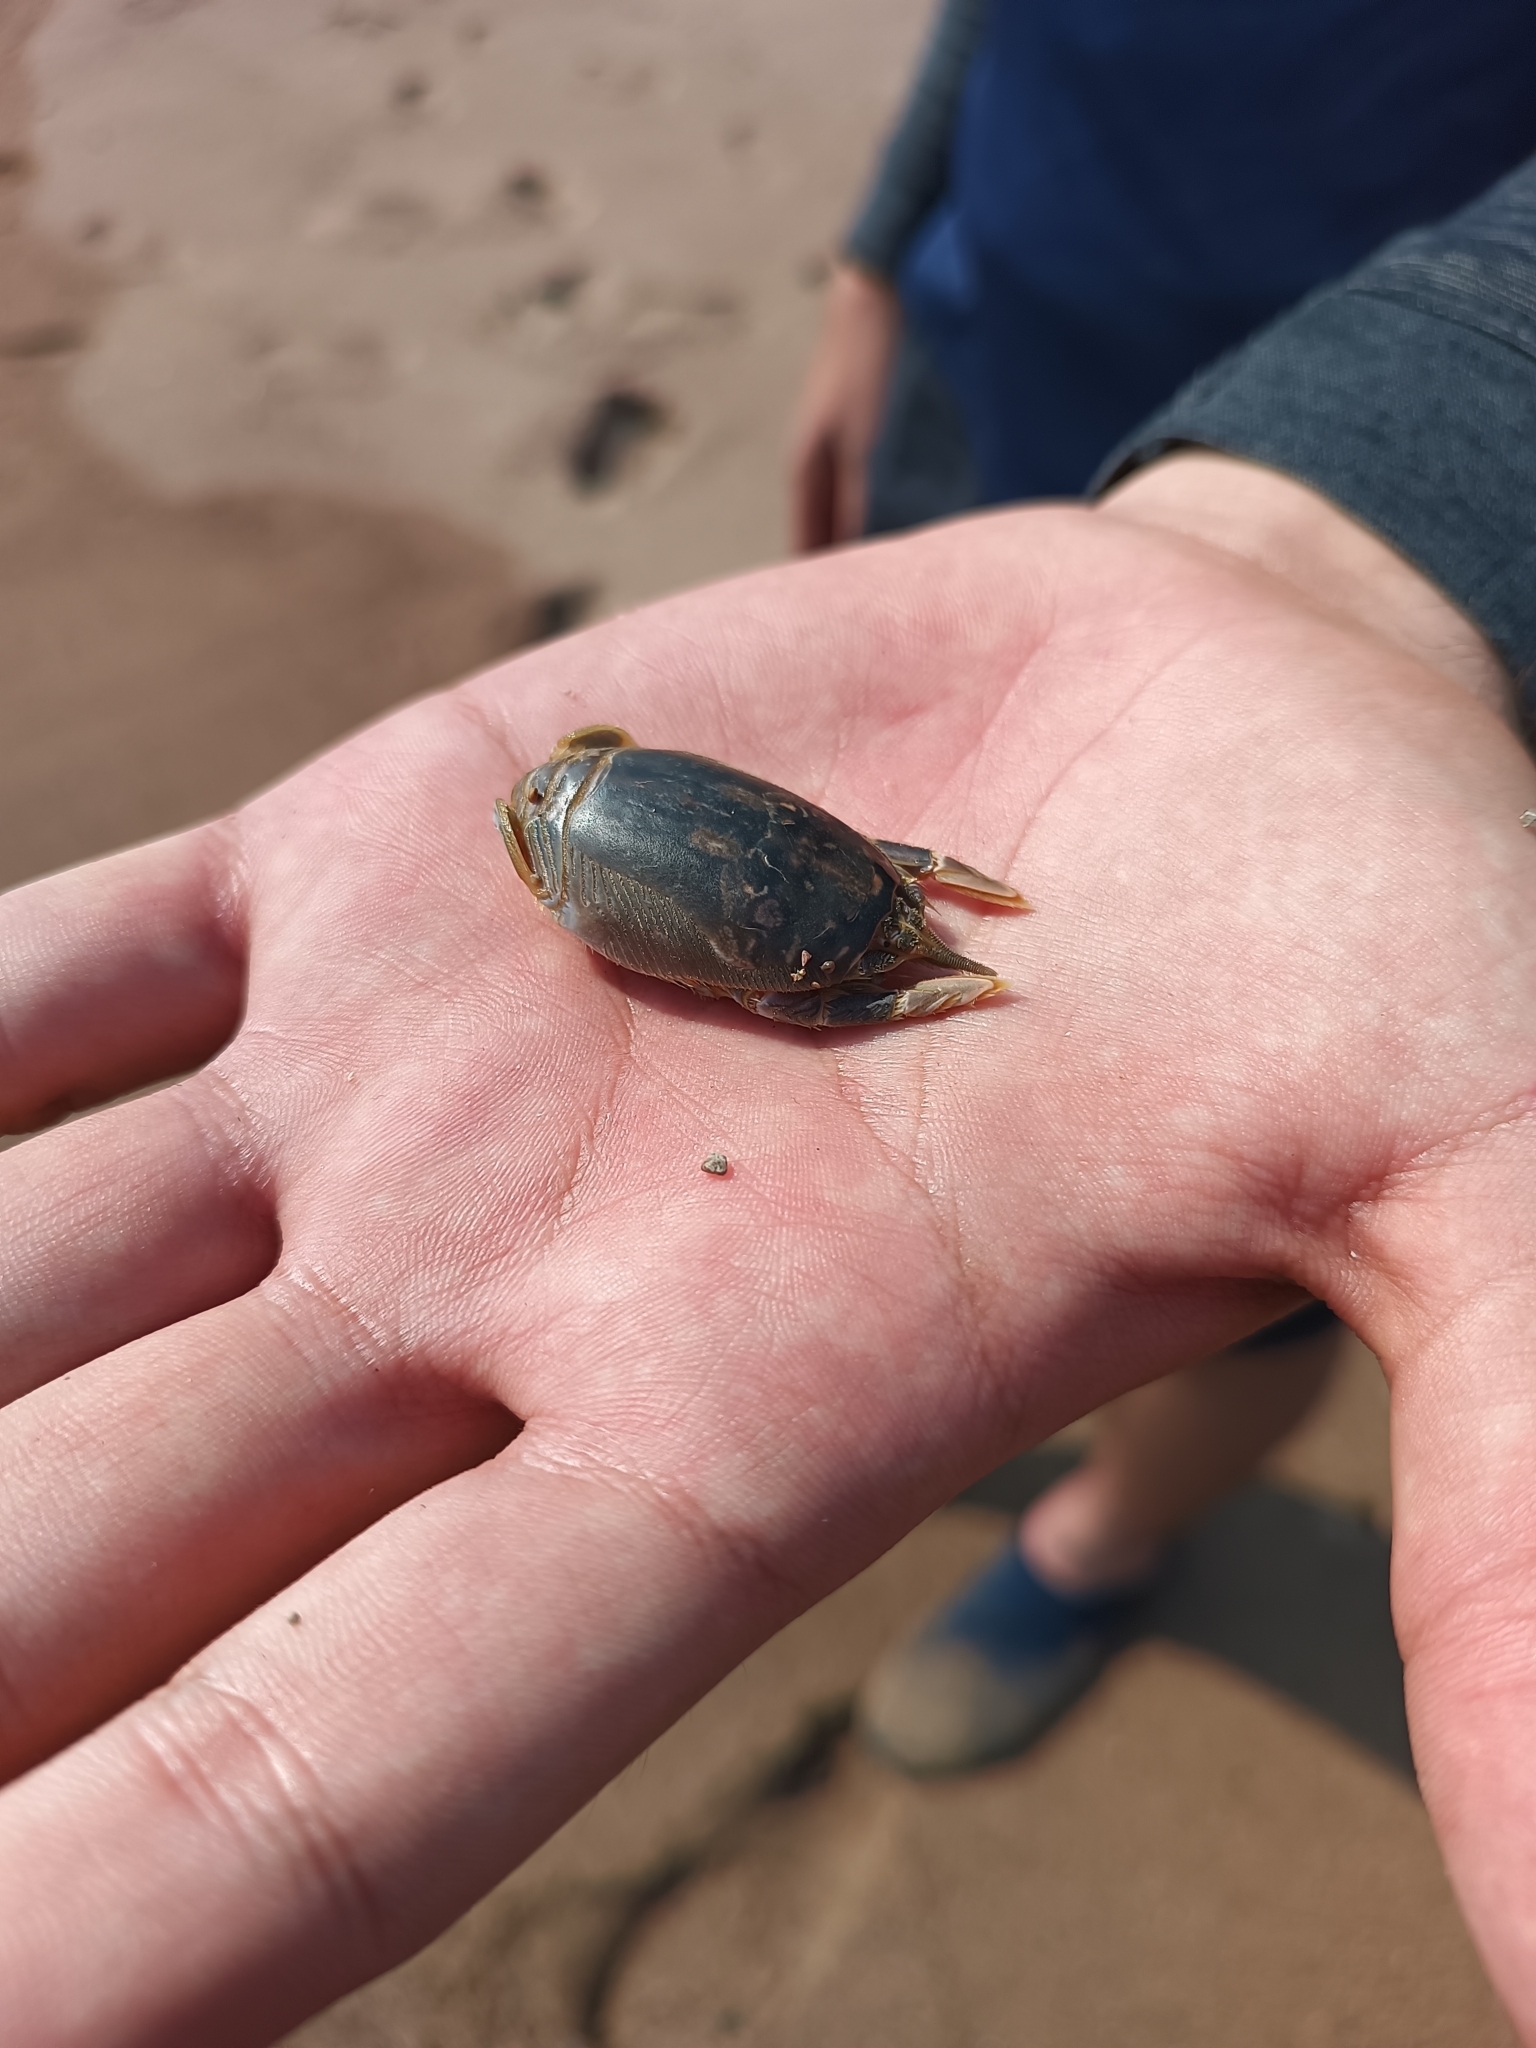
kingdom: Animalia
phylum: Arthropoda
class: Malacostraca
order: Decapoda
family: Hippidae
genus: Hippa
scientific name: Hippa strigillata
